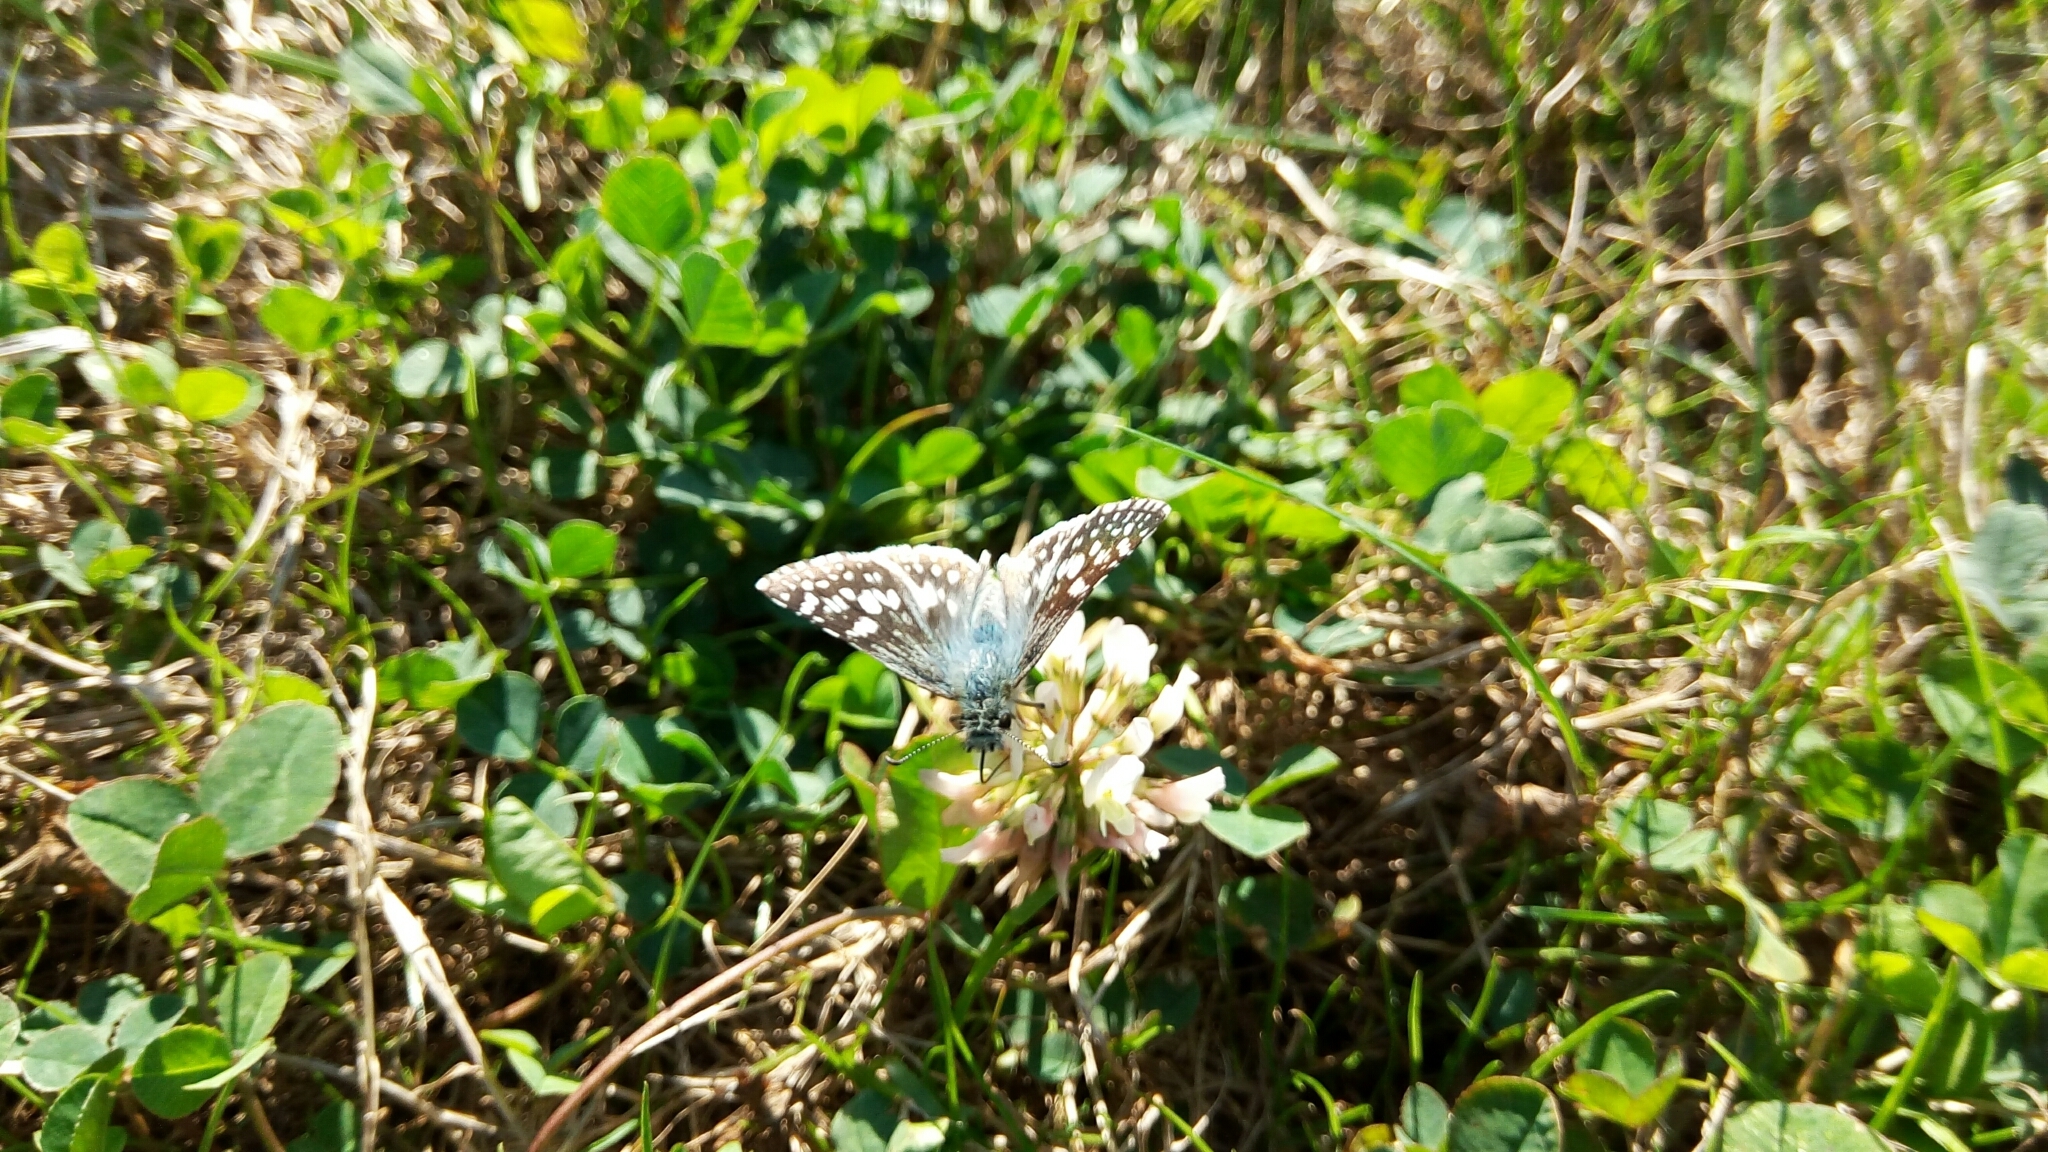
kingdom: Animalia
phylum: Arthropoda
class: Insecta
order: Lepidoptera
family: Hesperiidae
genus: Burnsius
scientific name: Burnsius communis
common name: Common checkered-skipper
